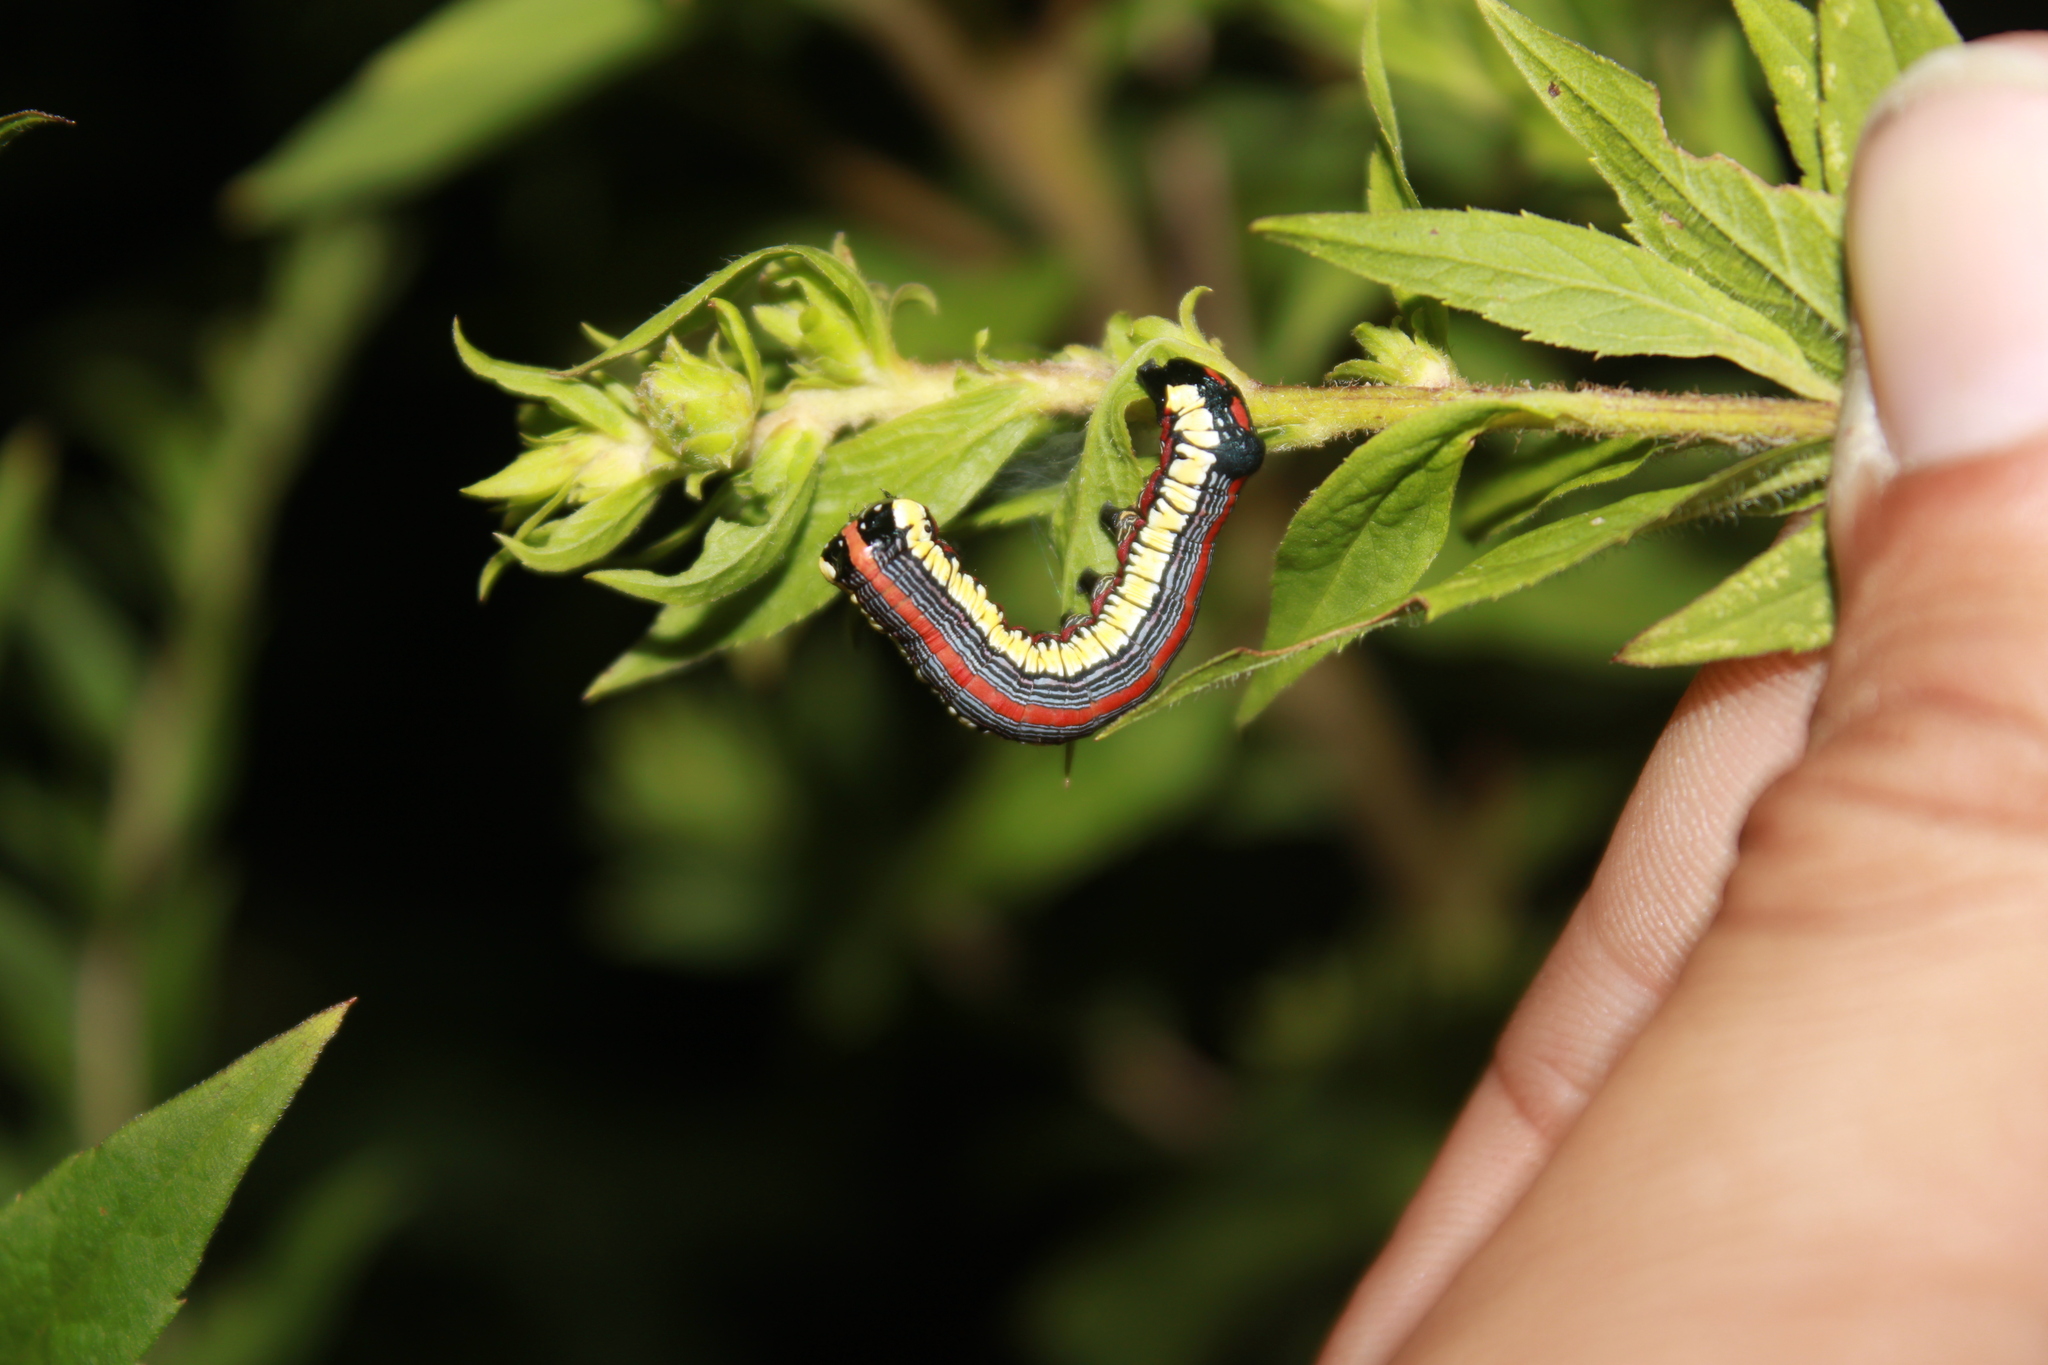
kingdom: Animalia
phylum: Arthropoda
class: Insecta
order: Lepidoptera
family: Noctuidae
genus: Cucullia
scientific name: Cucullia convexipennis
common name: Brown-hooded owlet
